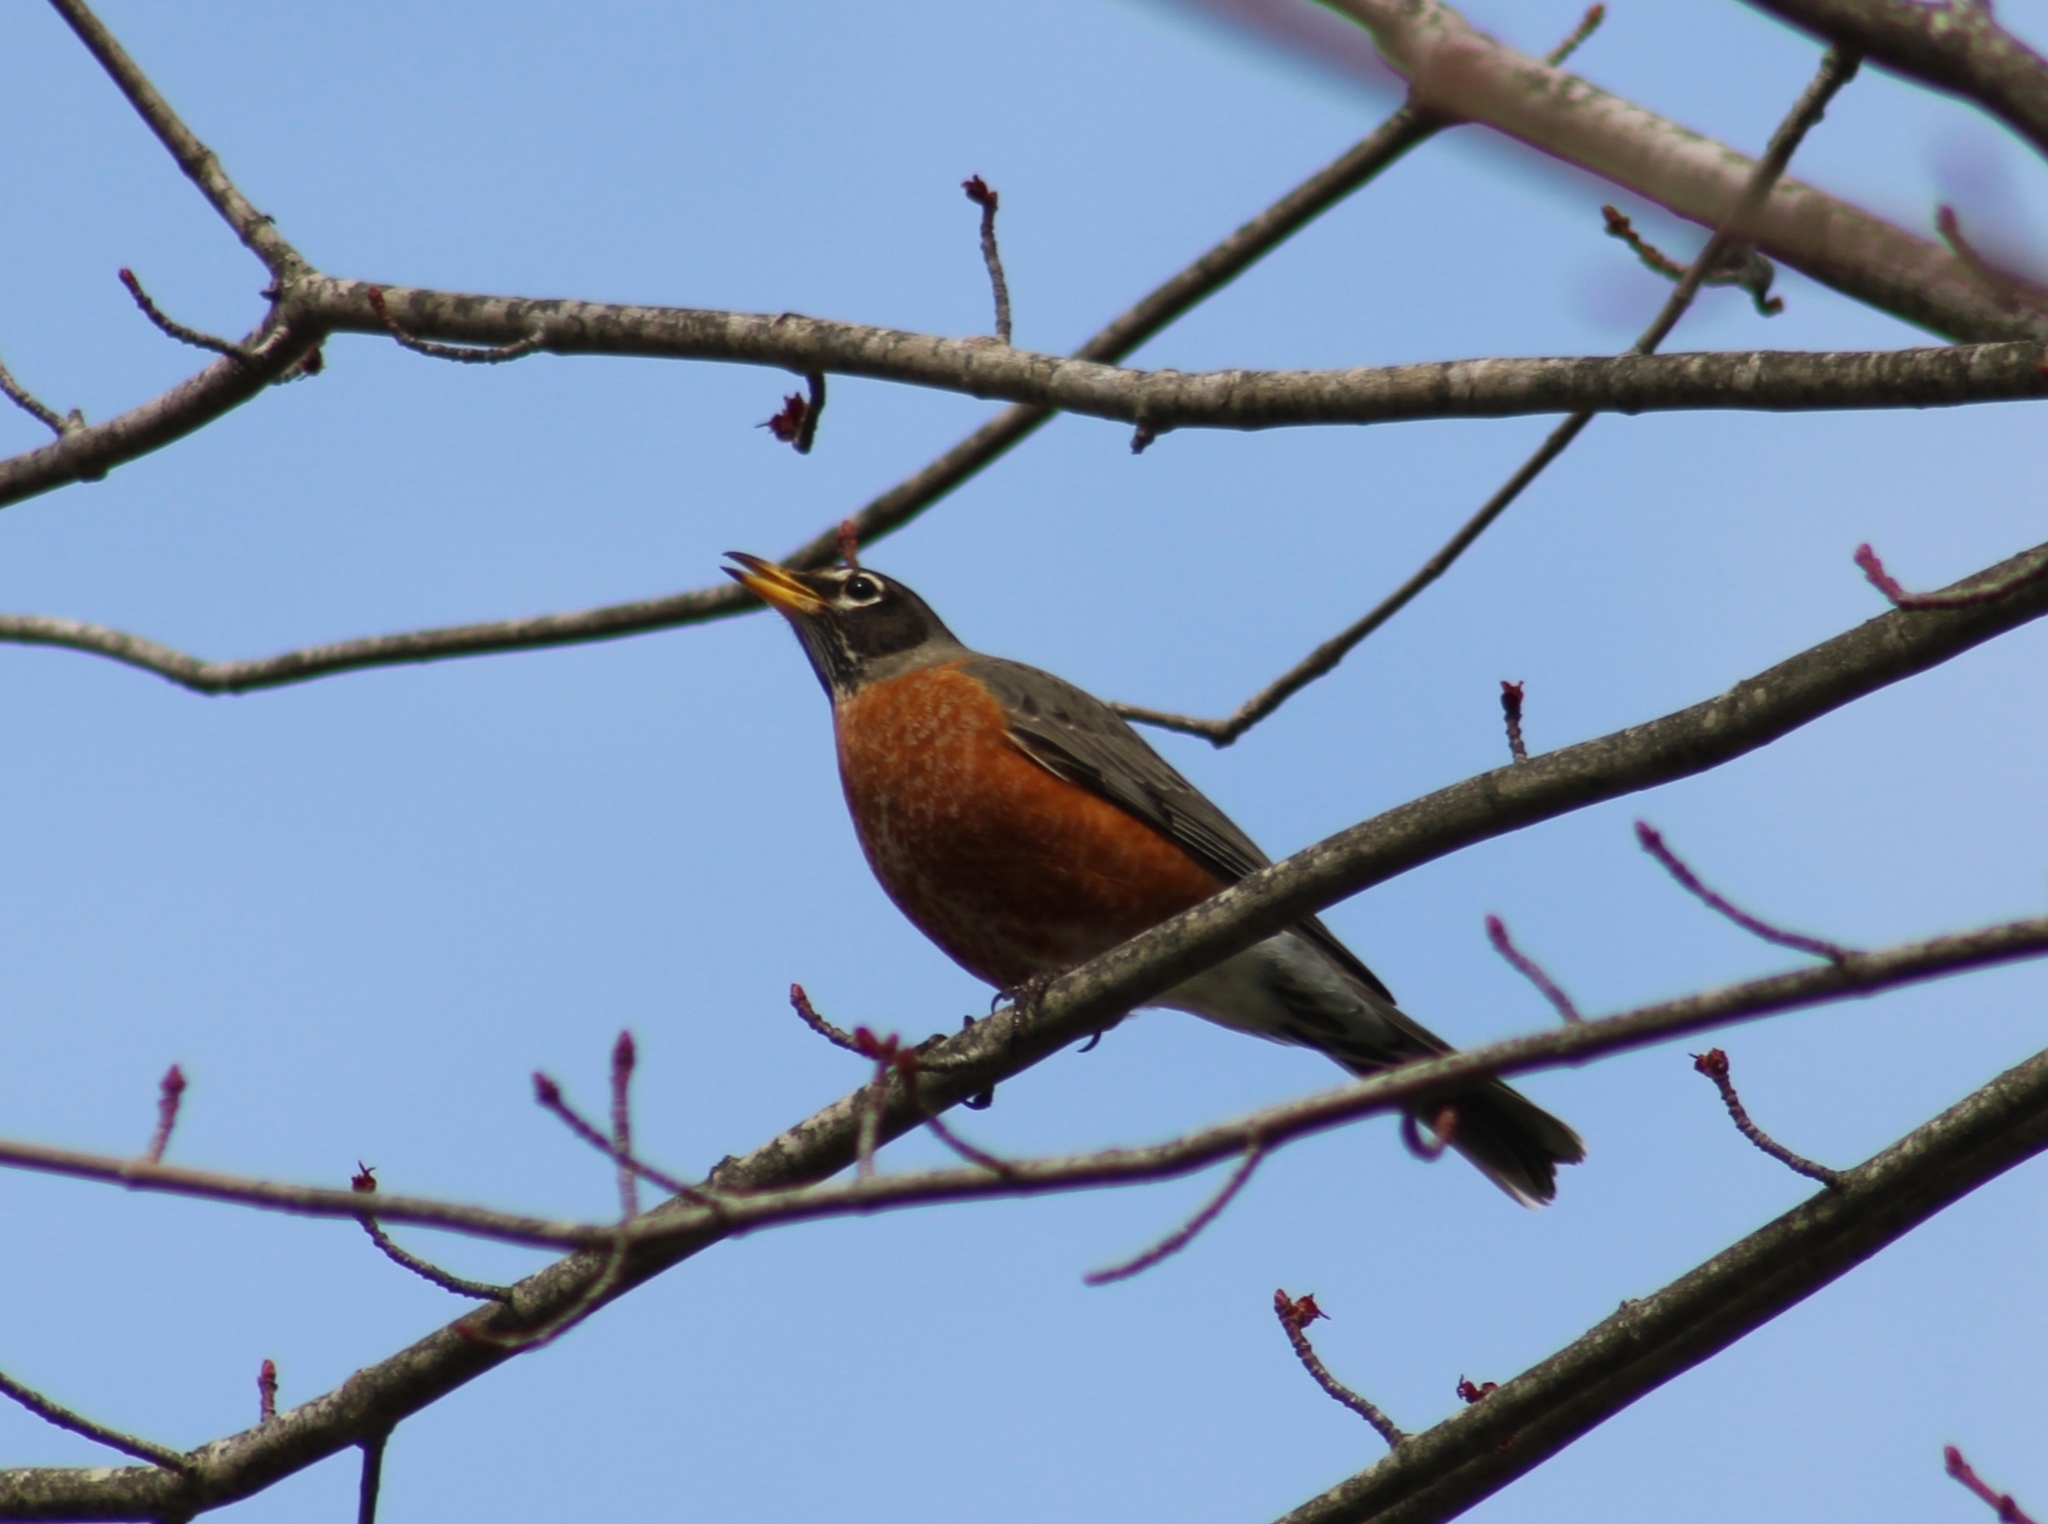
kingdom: Animalia
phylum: Chordata
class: Aves
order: Passeriformes
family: Turdidae
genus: Turdus
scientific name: Turdus migratorius
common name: American robin
